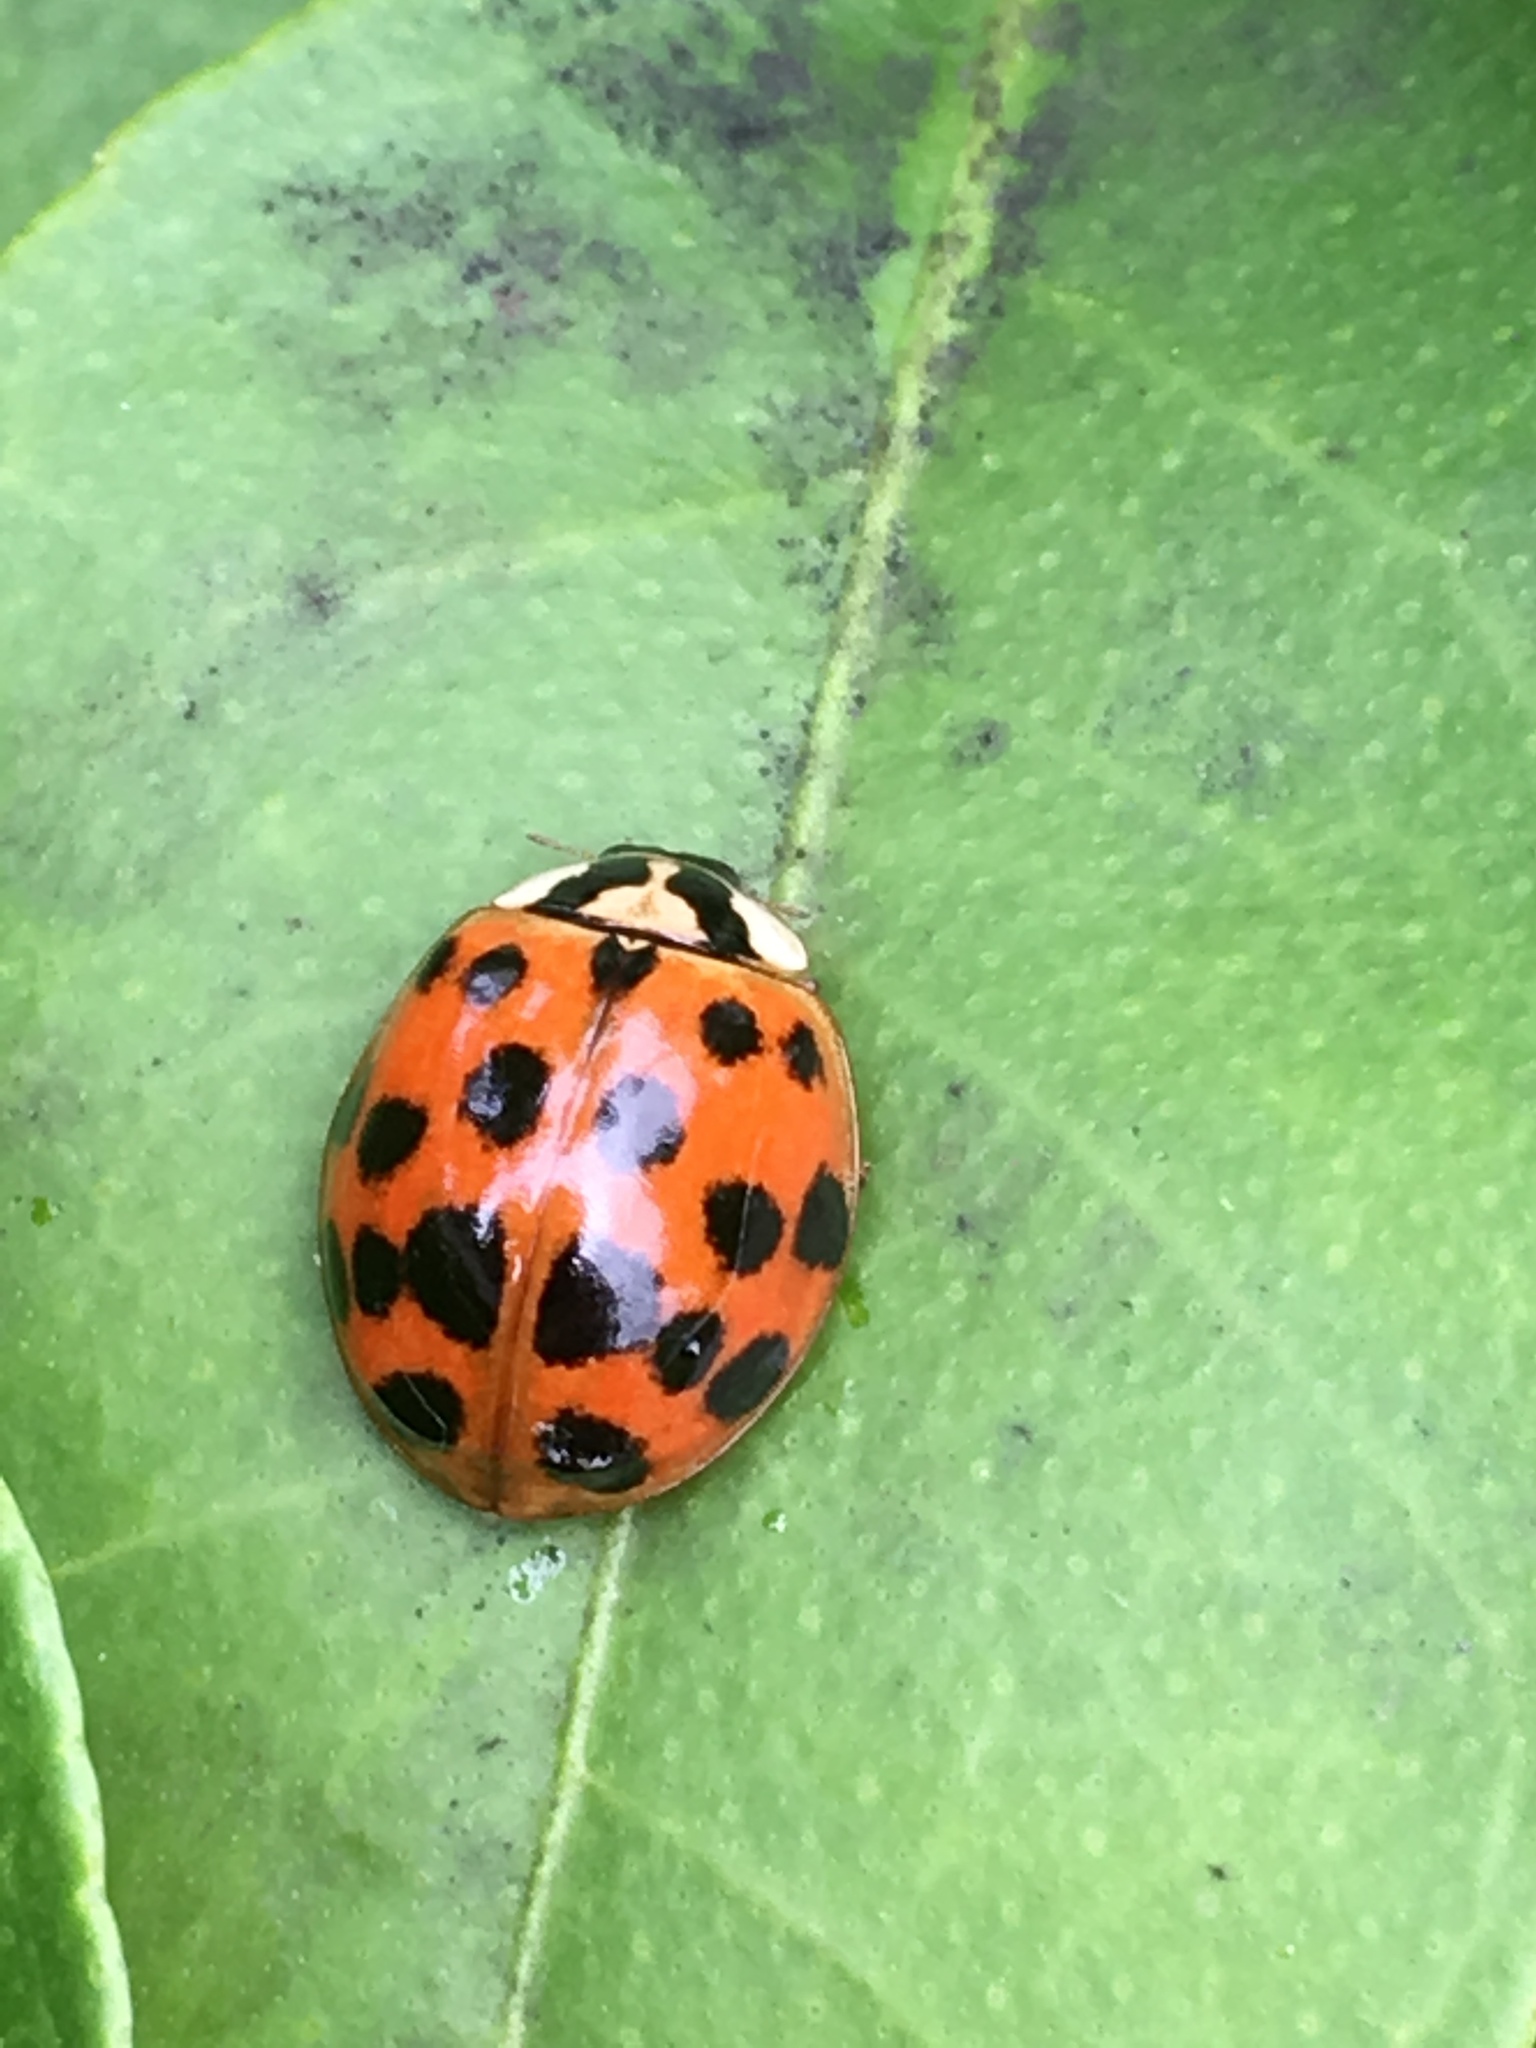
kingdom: Animalia
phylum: Arthropoda
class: Insecta
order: Coleoptera
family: Coccinellidae
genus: Harmonia
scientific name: Harmonia axyridis
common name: Harlequin ladybird
